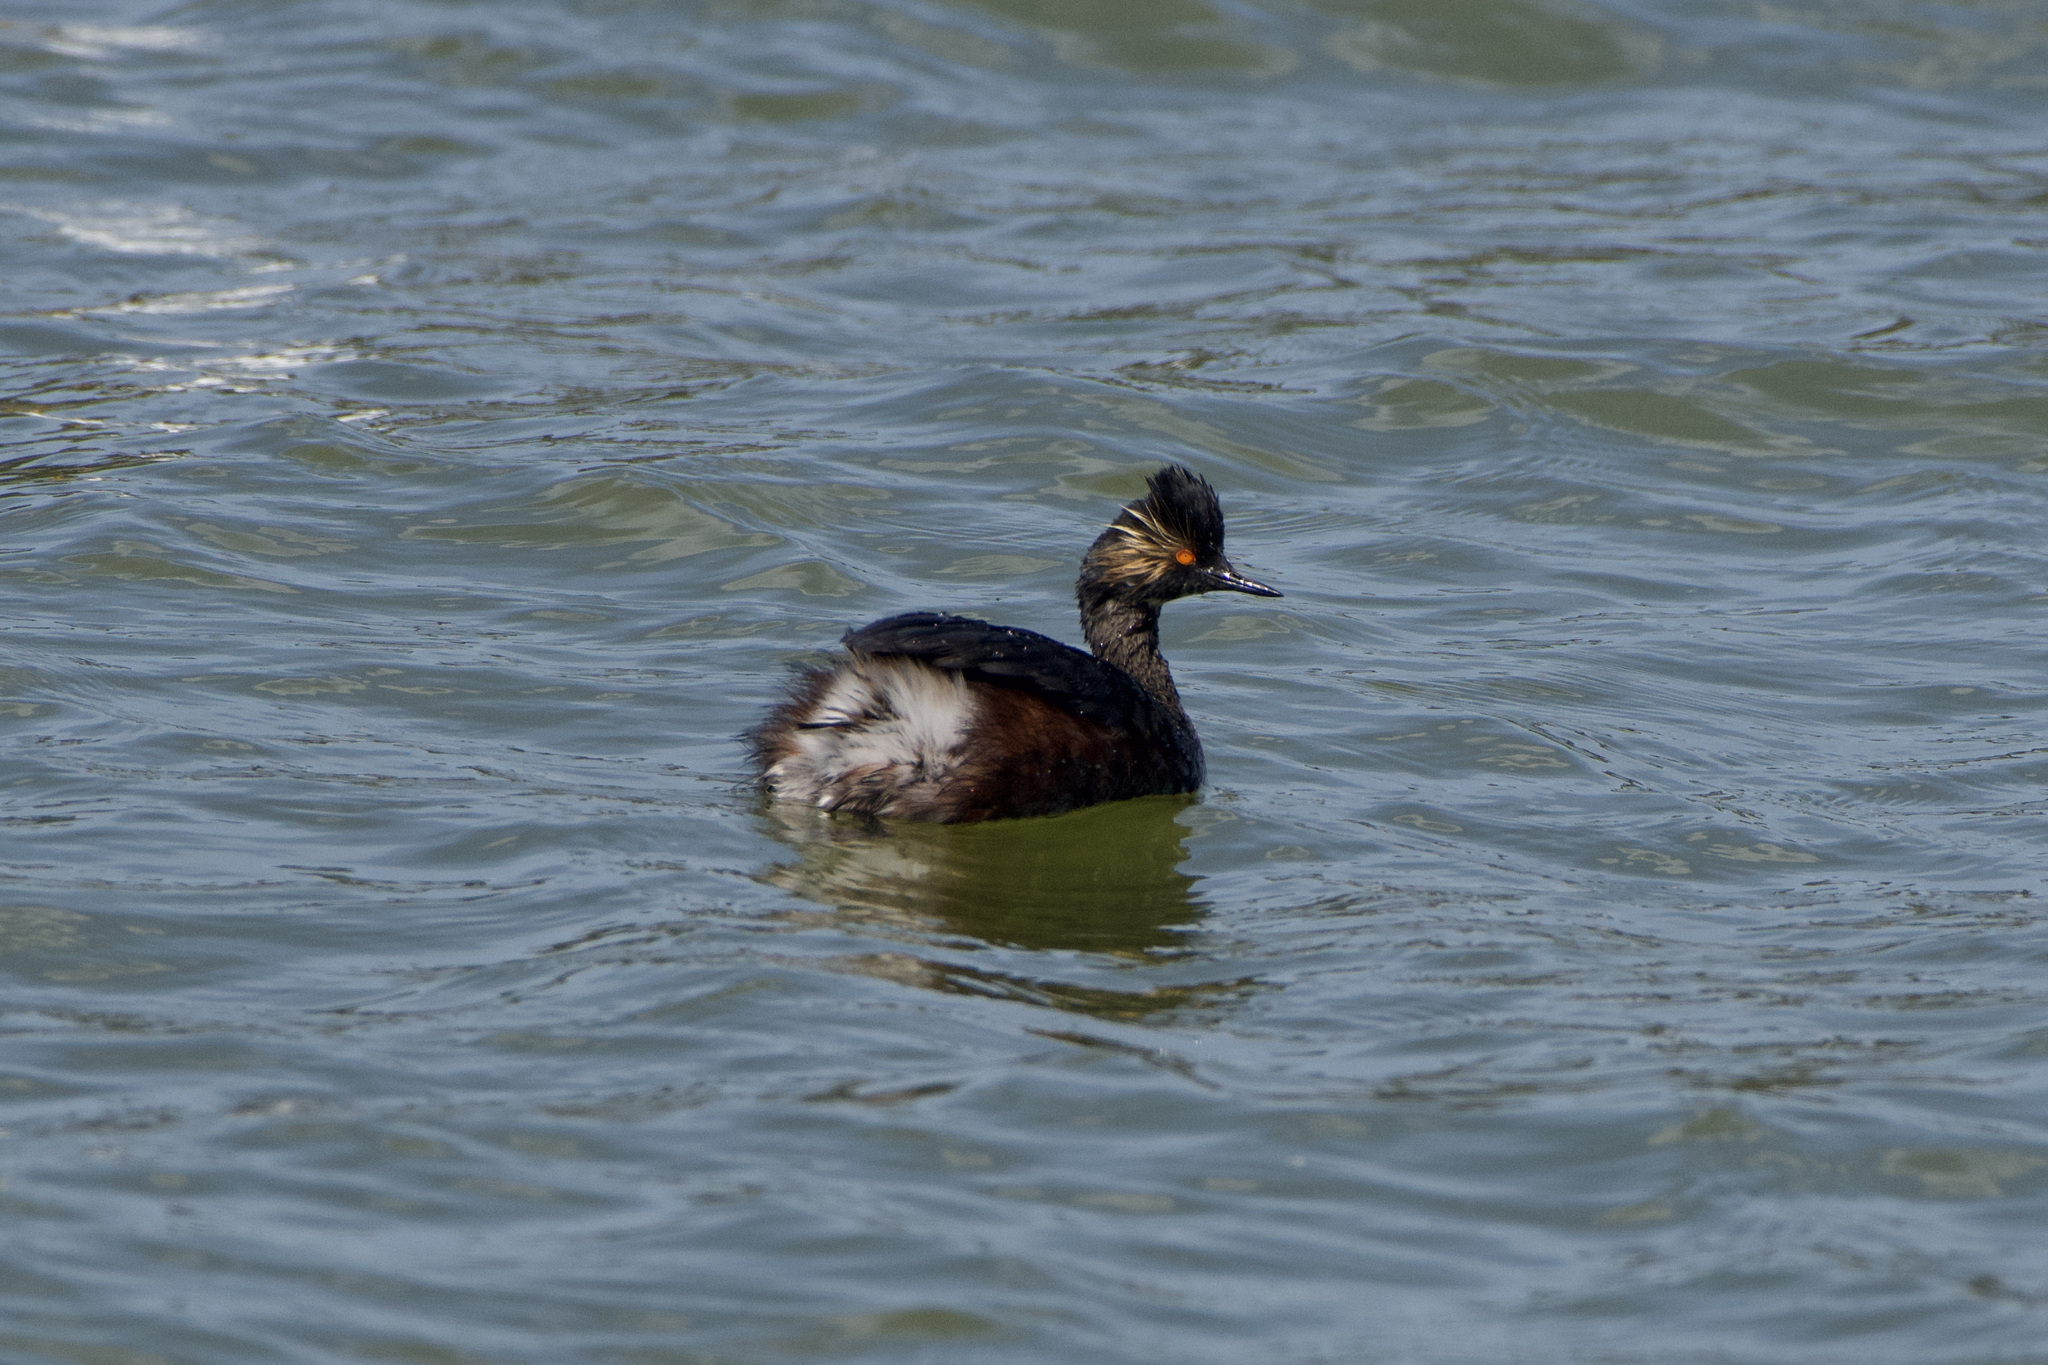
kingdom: Animalia
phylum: Chordata
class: Aves
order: Podicipediformes
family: Podicipedidae
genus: Podiceps
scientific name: Podiceps nigricollis
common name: Black-necked grebe
